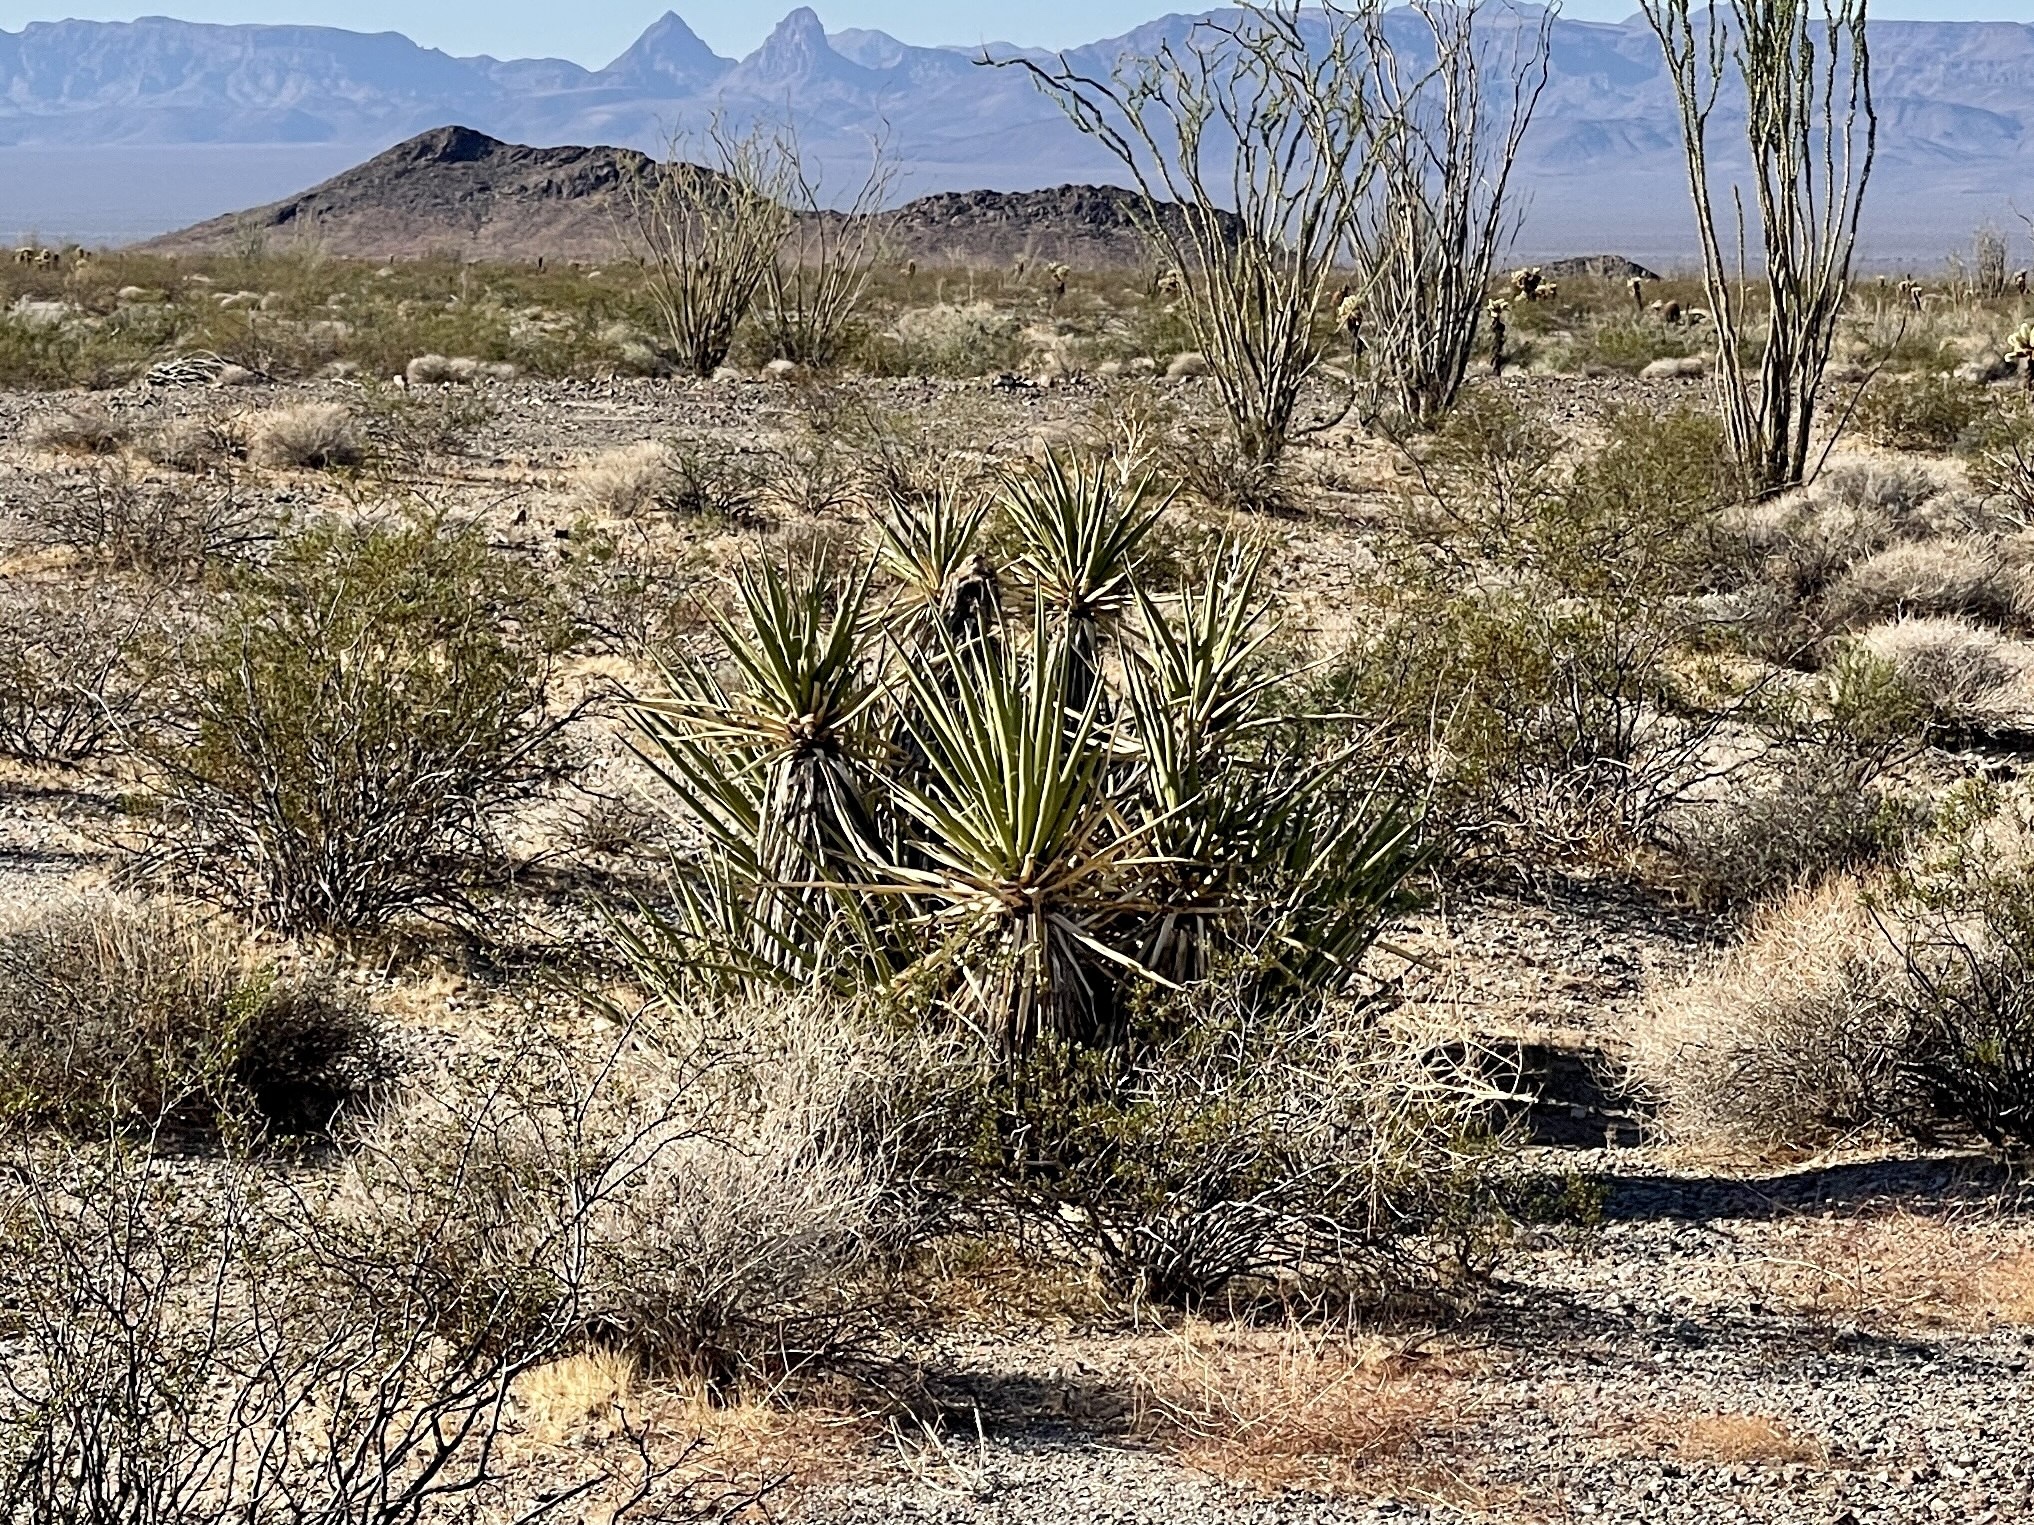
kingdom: Plantae
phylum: Tracheophyta
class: Liliopsida
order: Asparagales
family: Asparagaceae
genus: Yucca
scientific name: Yucca schidigera
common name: Mojave yucca
